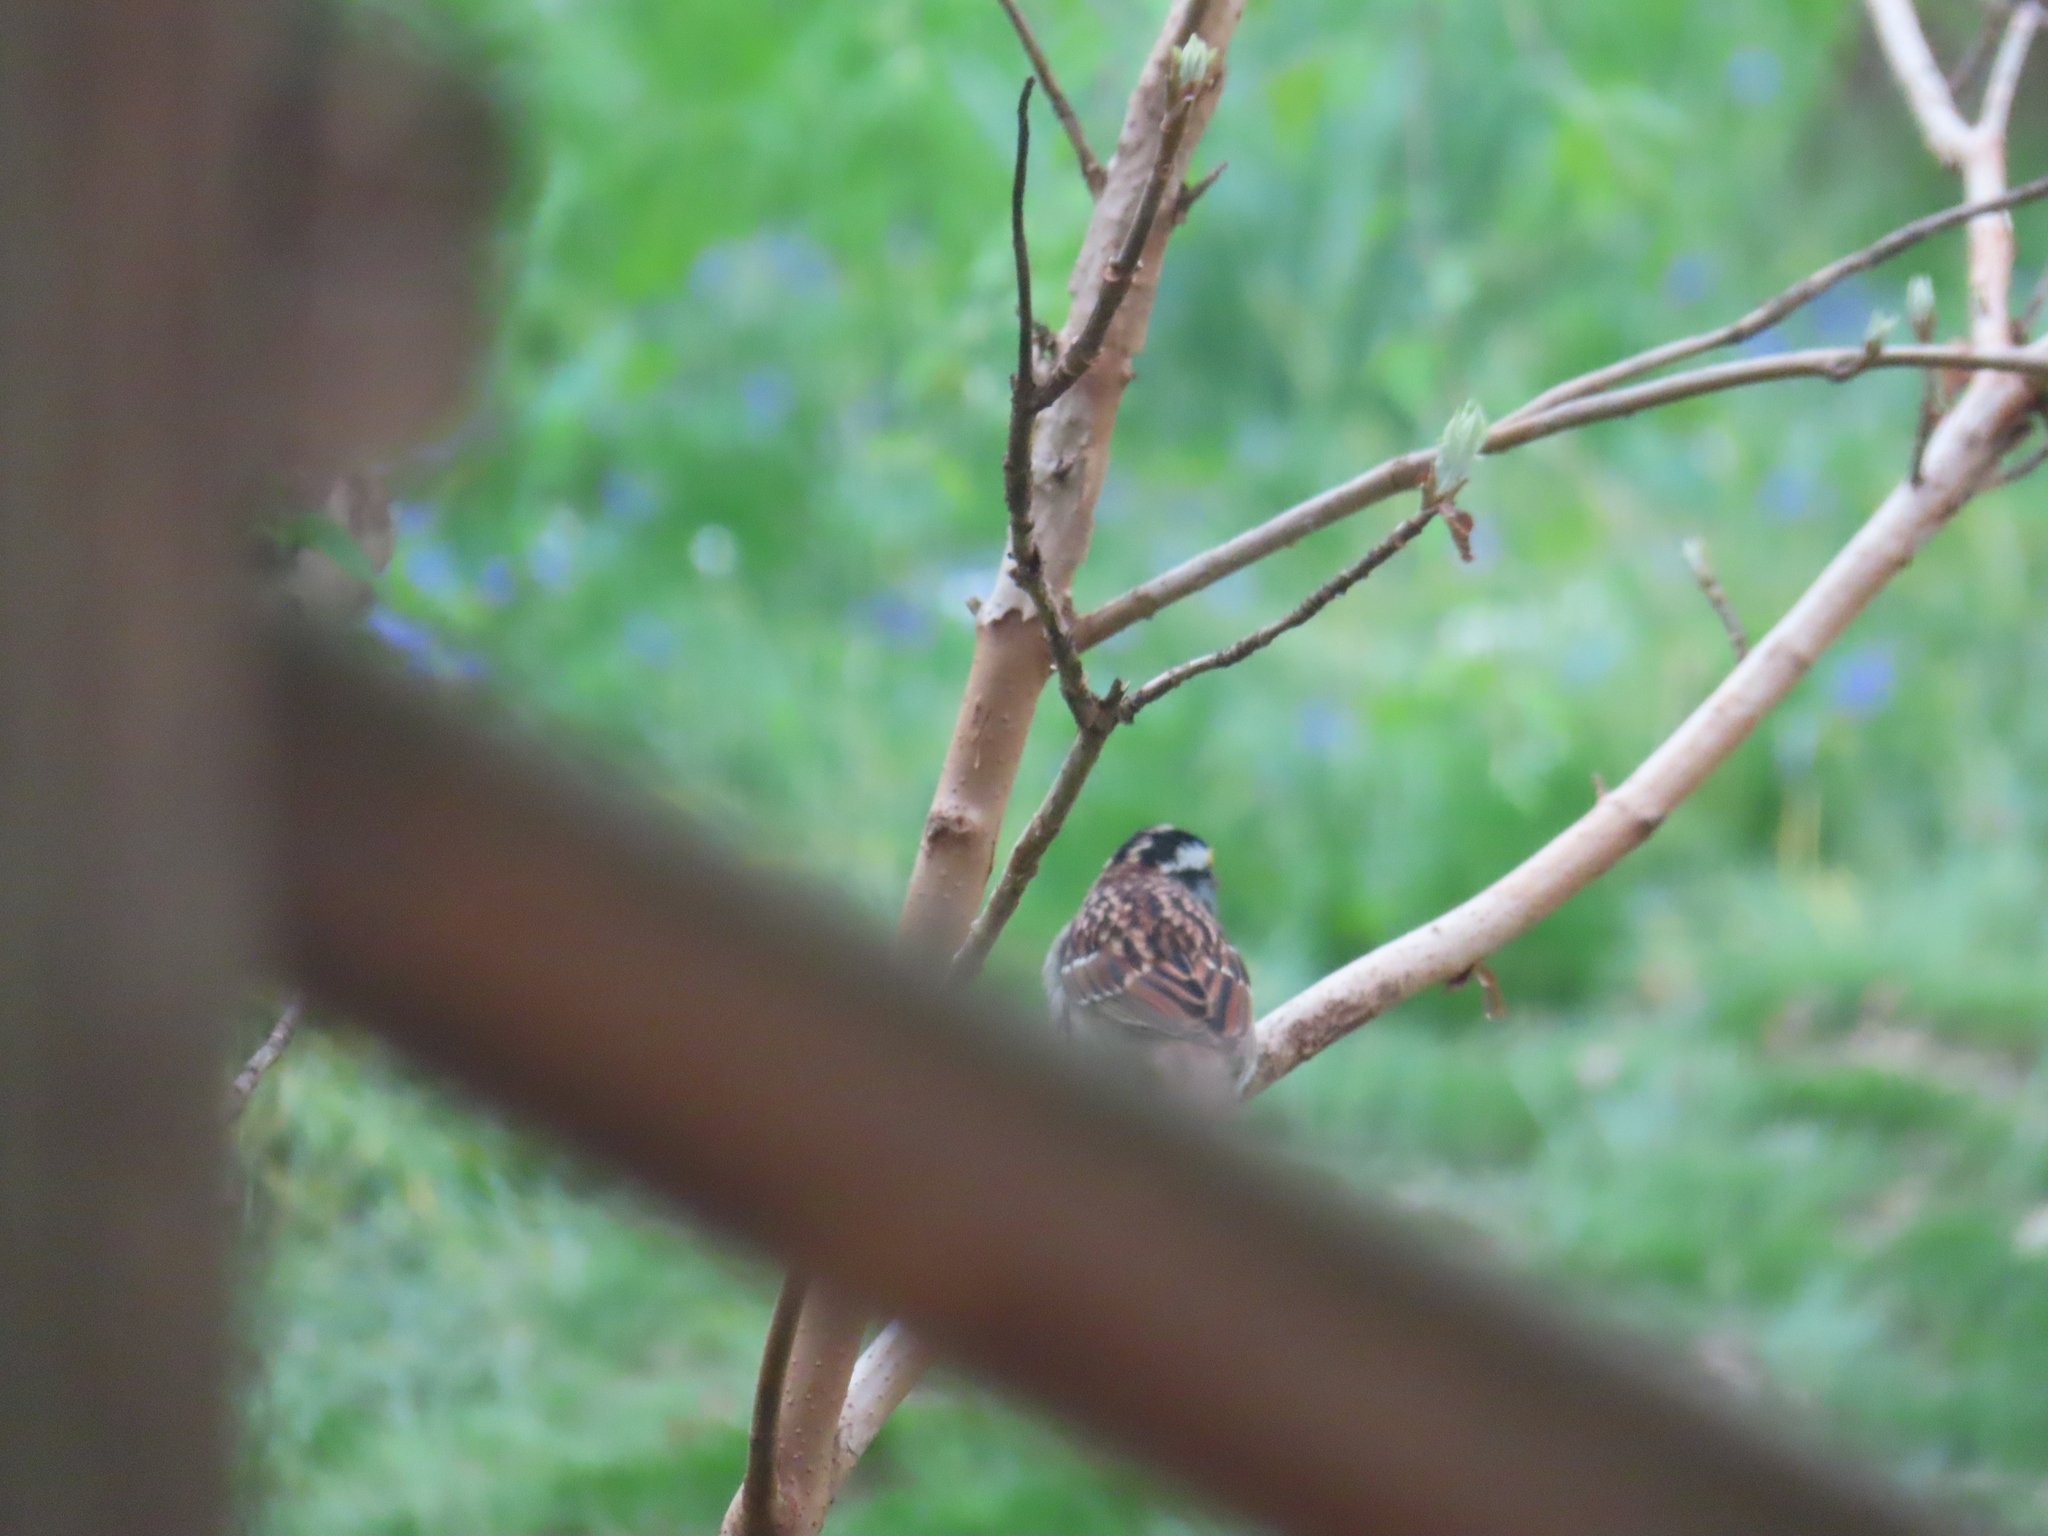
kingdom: Animalia
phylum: Chordata
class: Aves
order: Passeriformes
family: Passerellidae
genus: Zonotrichia
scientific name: Zonotrichia albicollis
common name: White-throated sparrow
